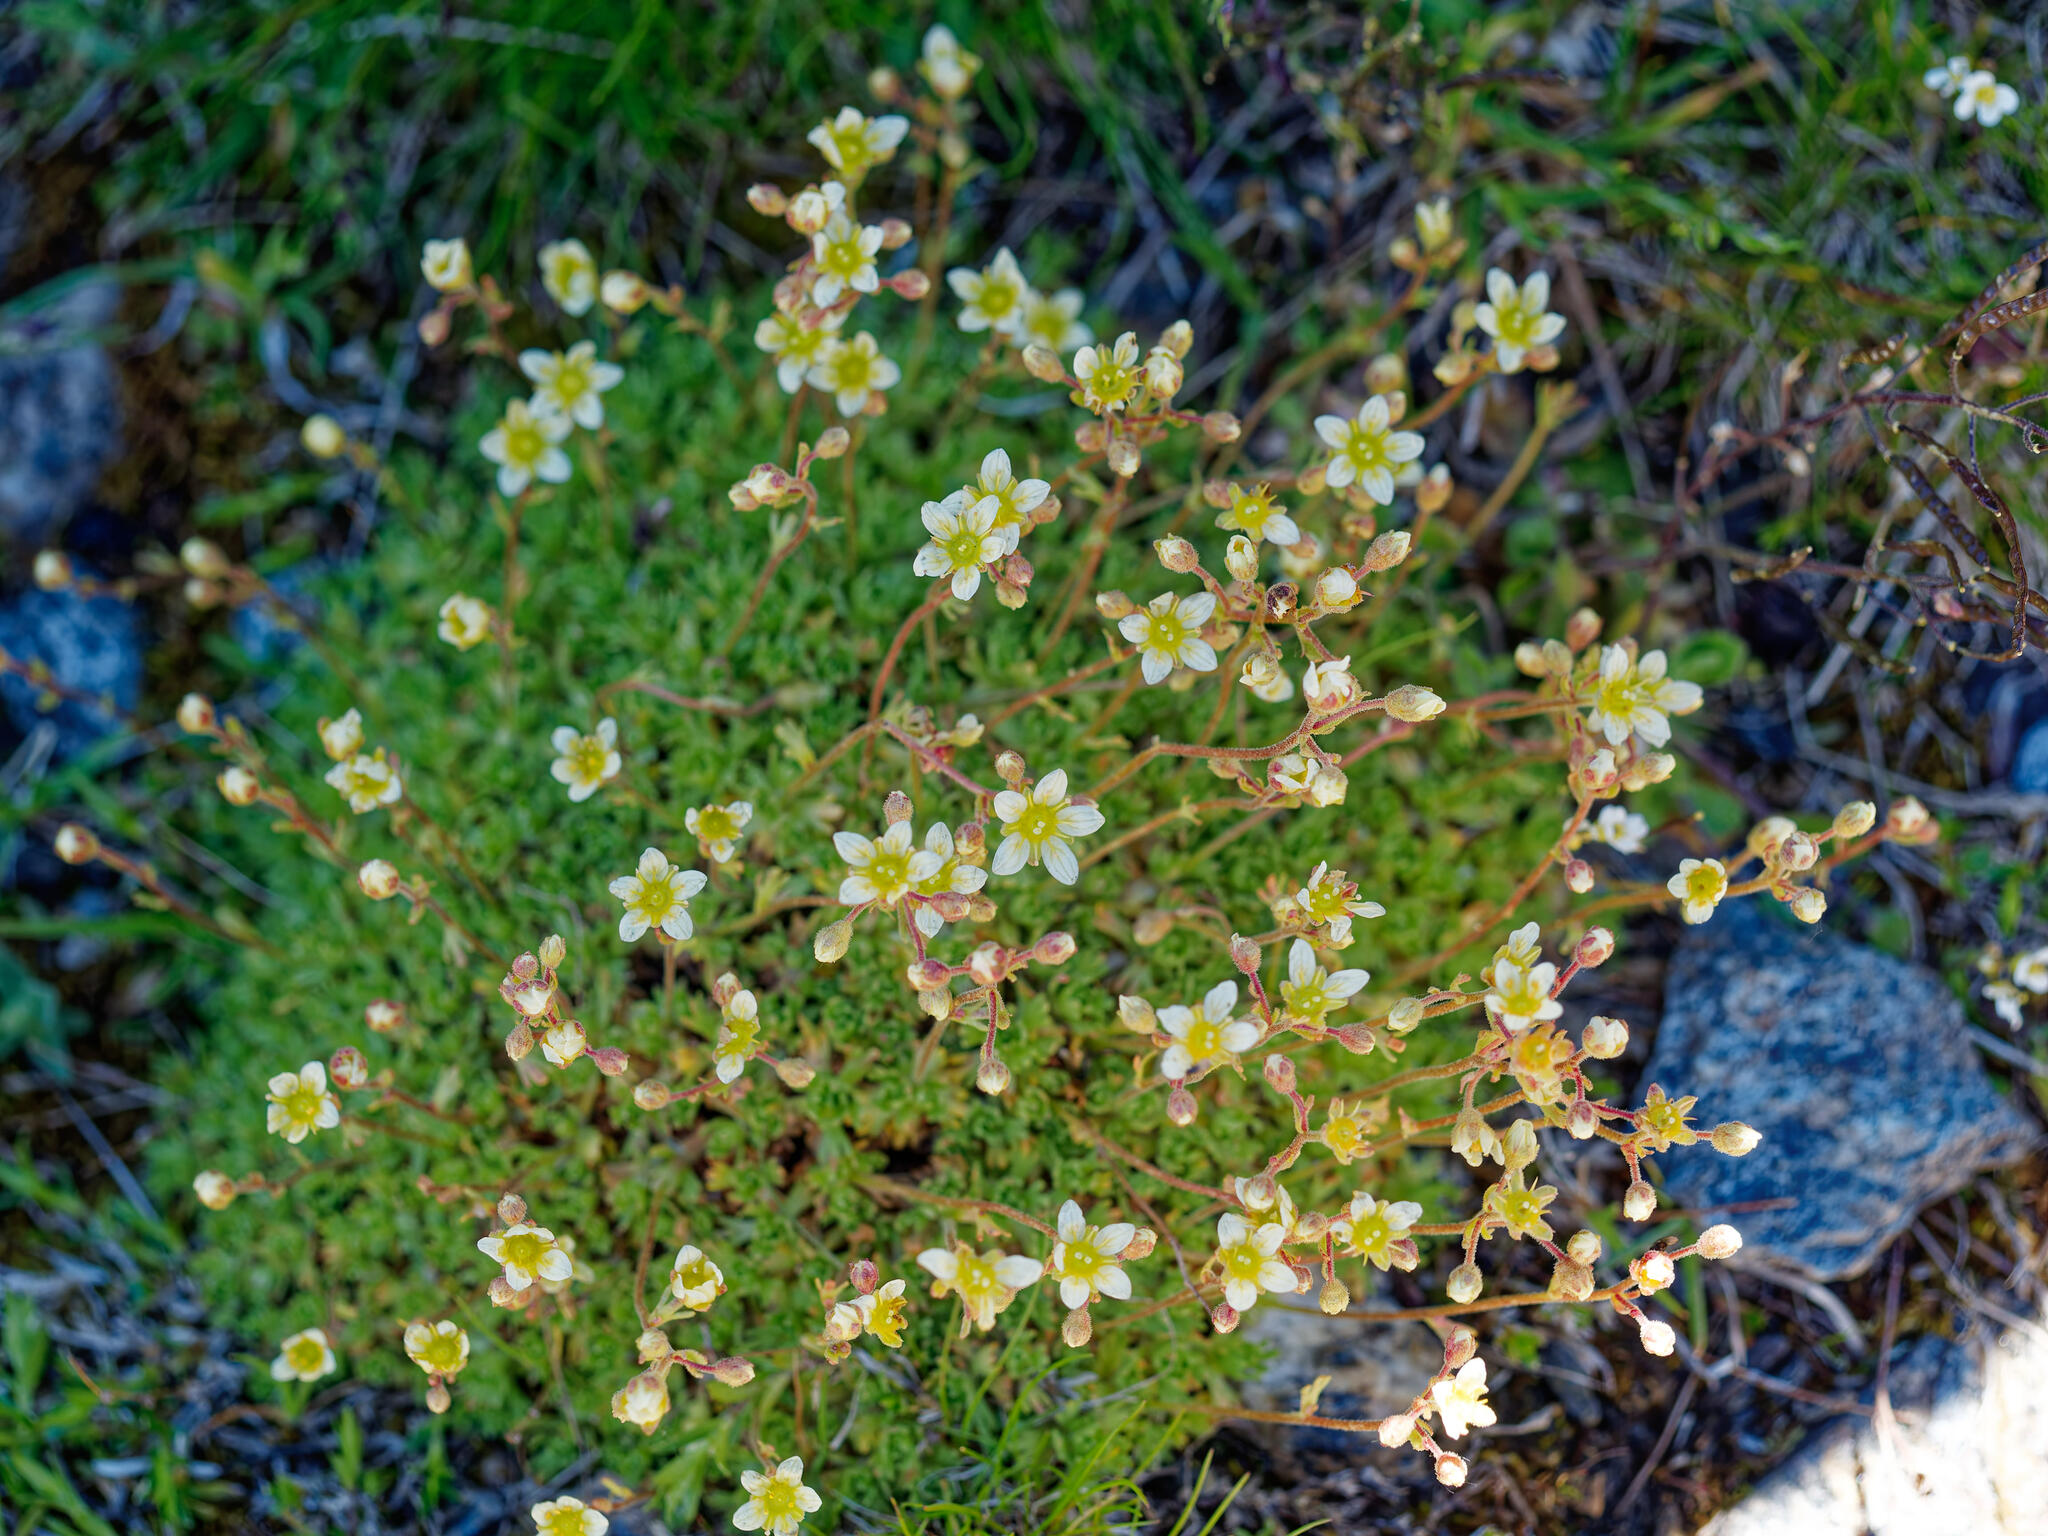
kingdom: Plantae
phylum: Tracheophyta
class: Magnoliopsida
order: Saxifragales
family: Saxifragaceae
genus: Saxifraga
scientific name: Saxifraga exarata
